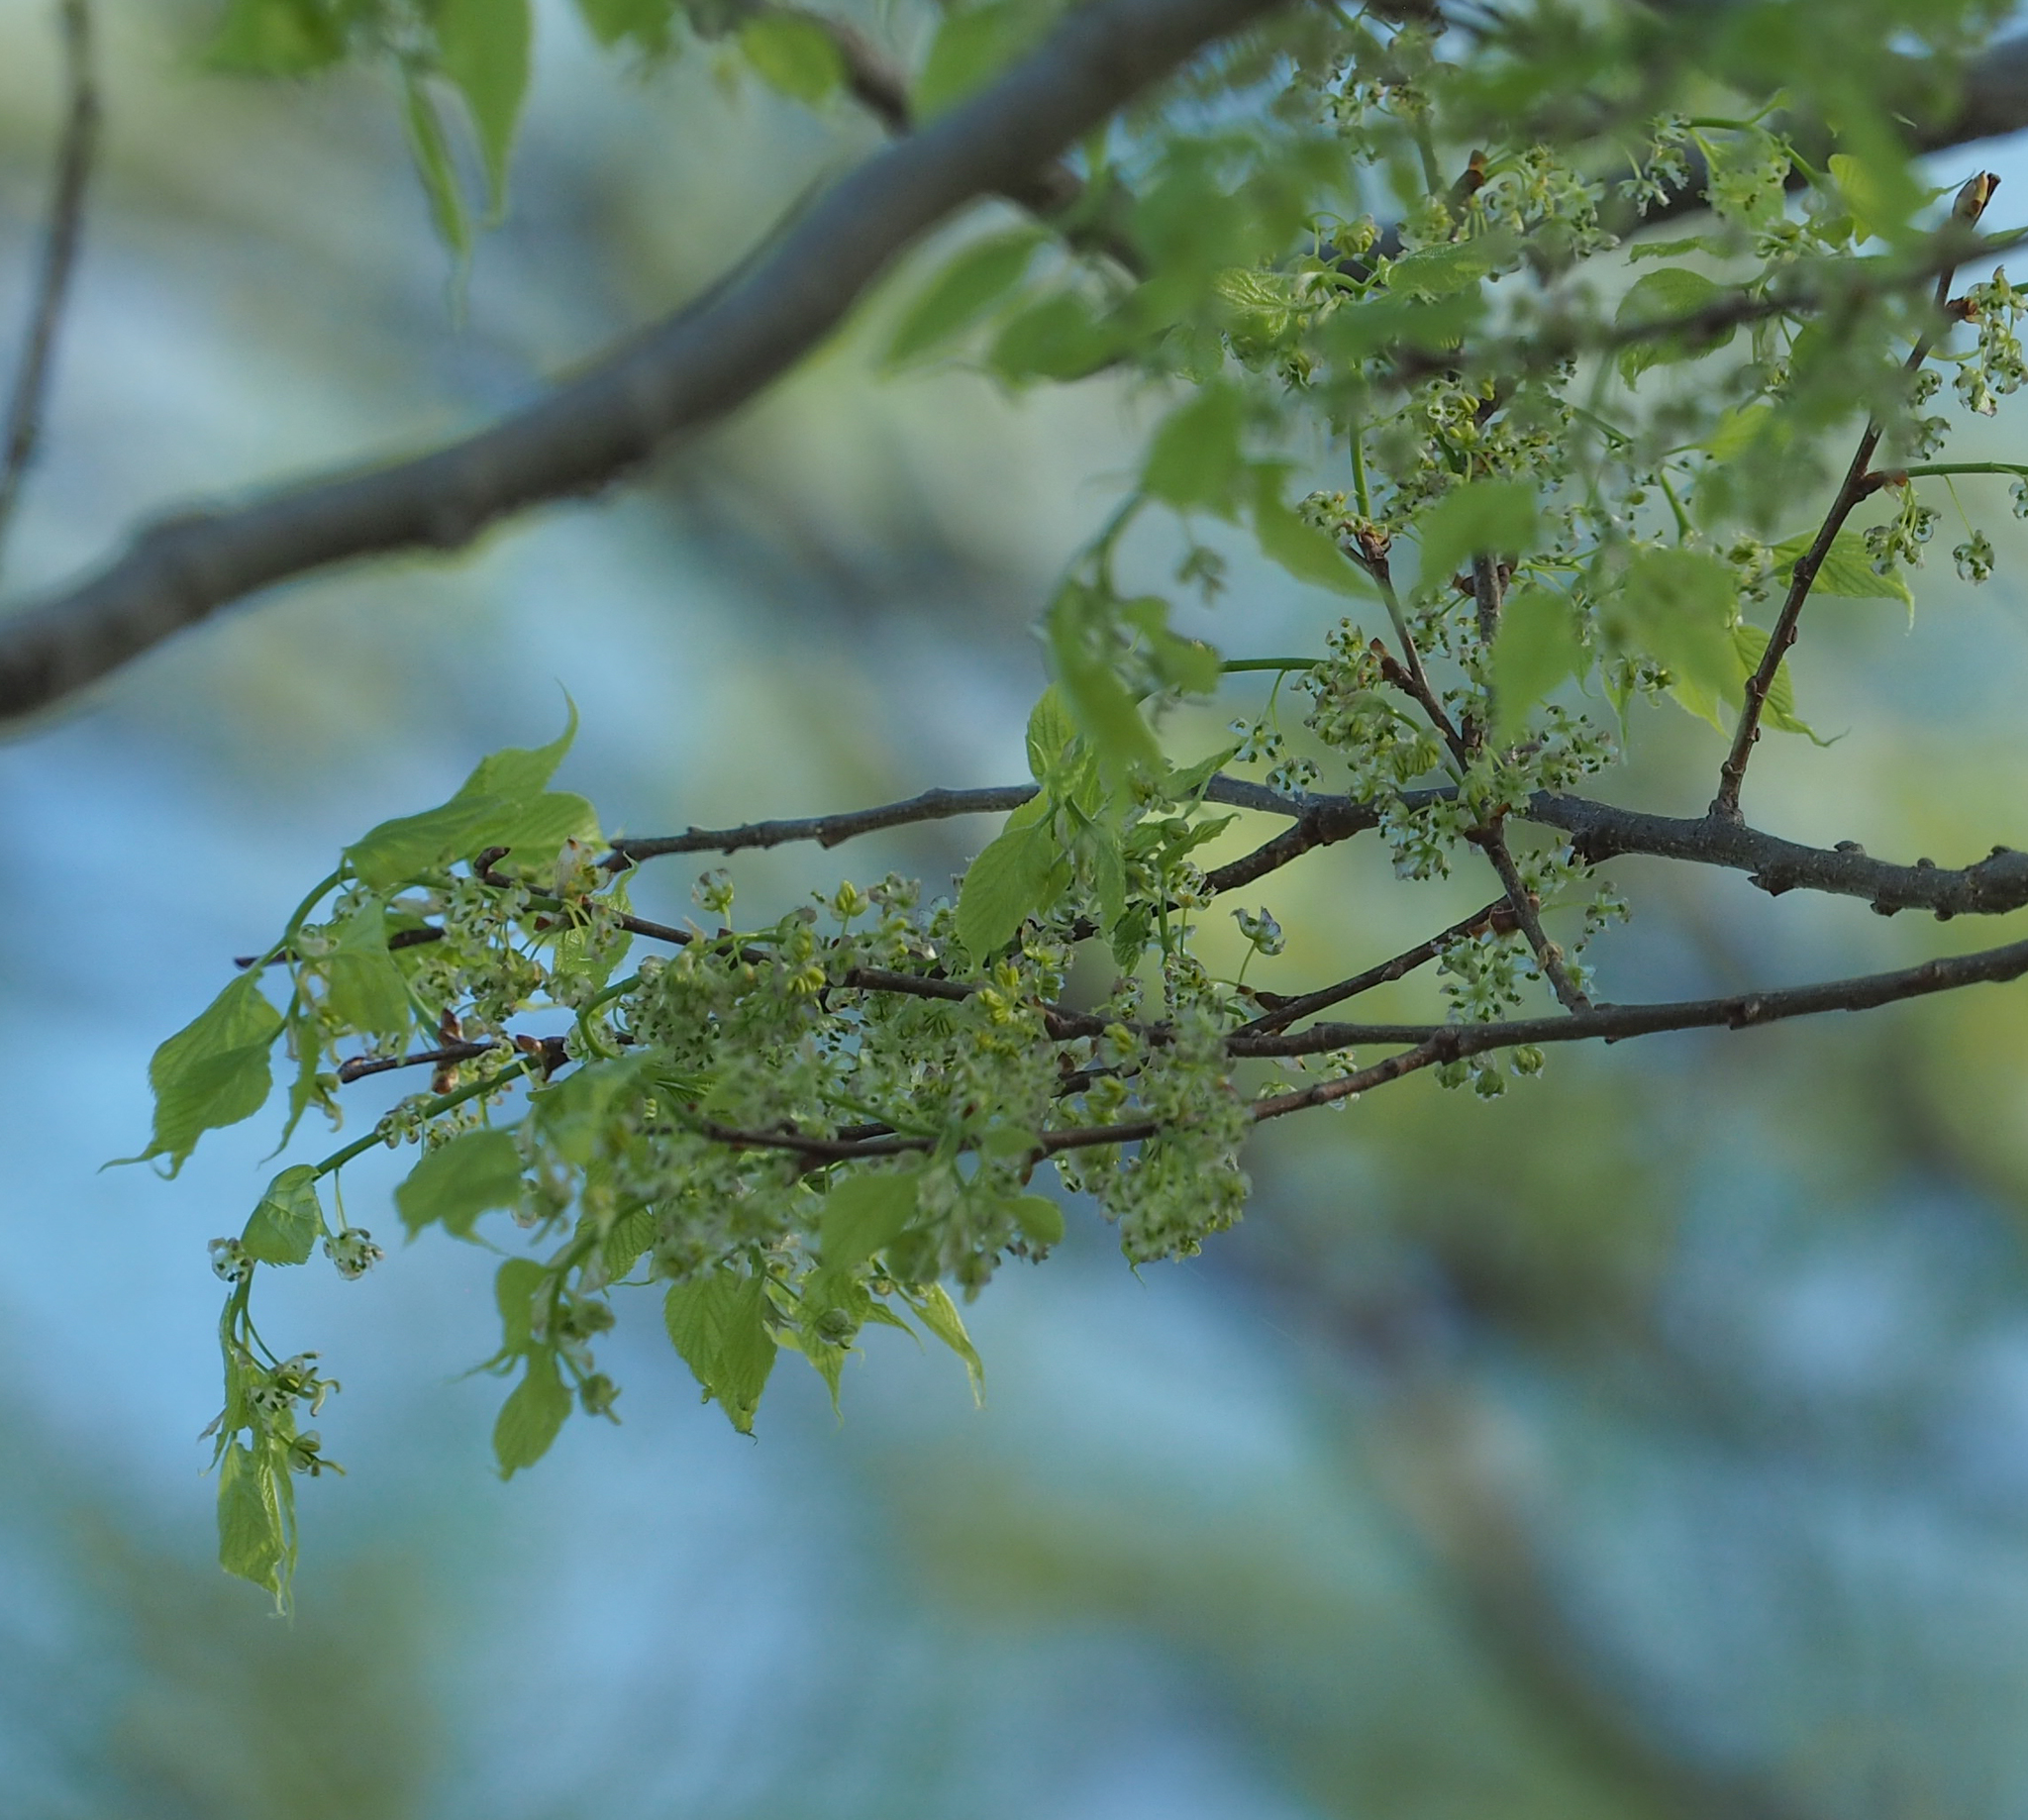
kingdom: Plantae
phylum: Tracheophyta
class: Magnoliopsida
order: Rosales
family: Cannabaceae
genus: Celtis
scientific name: Celtis occidentalis
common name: Common hackberry
